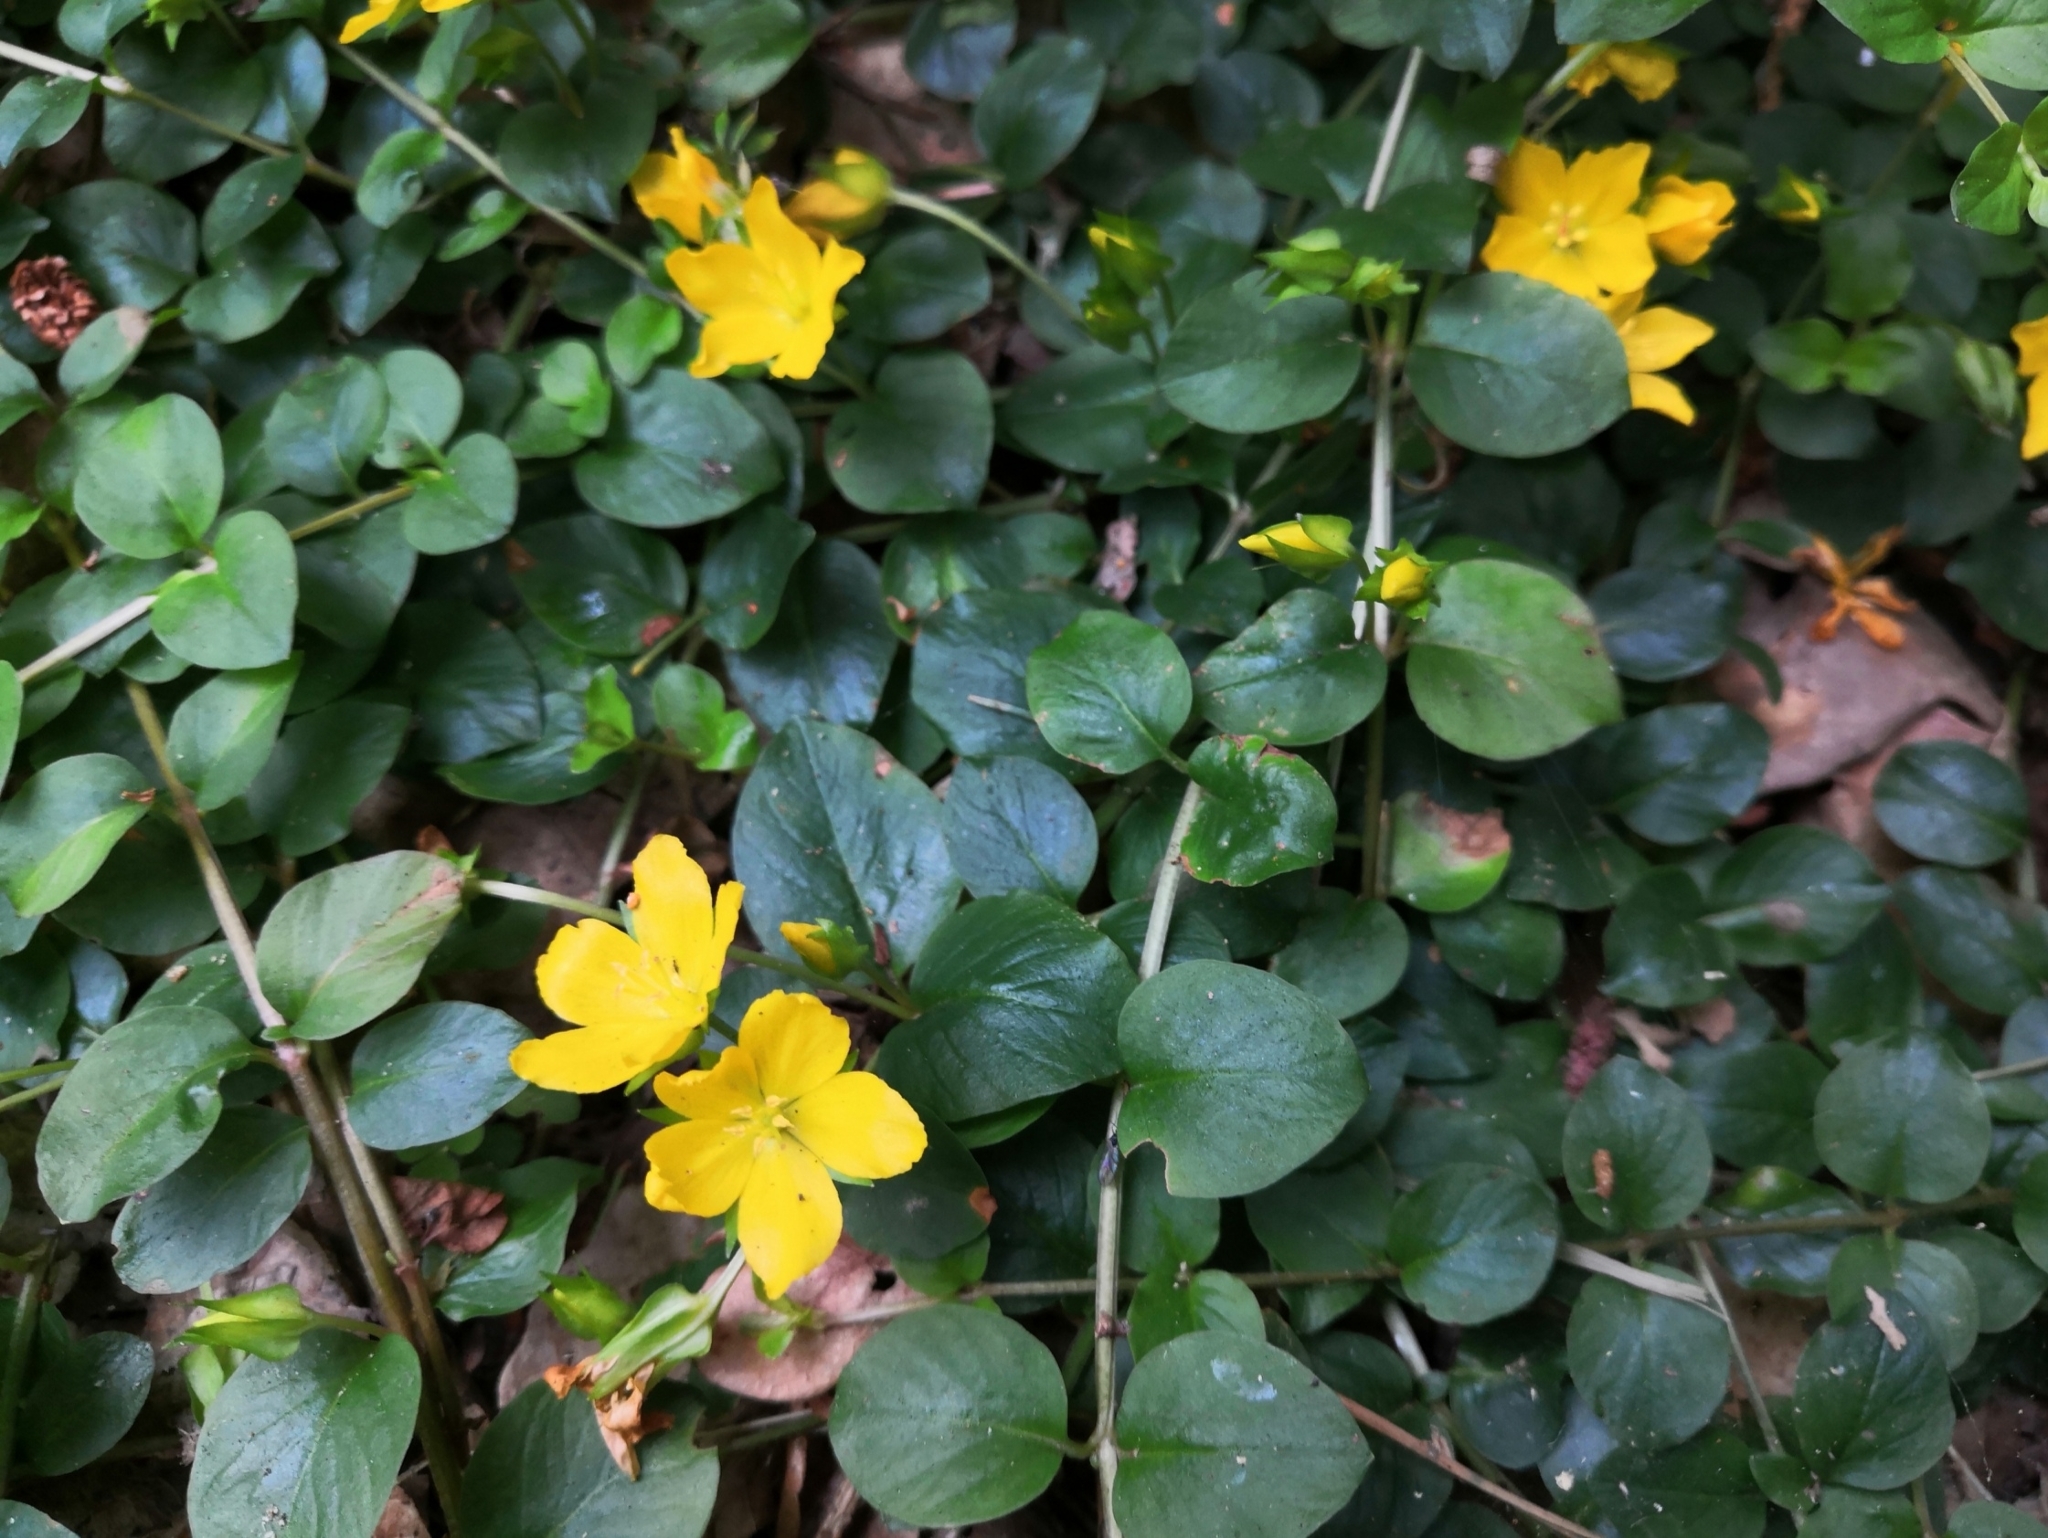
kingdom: Plantae
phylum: Tracheophyta
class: Magnoliopsida
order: Ericales
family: Primulaceae
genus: Lysimachia
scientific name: Lysimachia nummularia
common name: Moneywort
